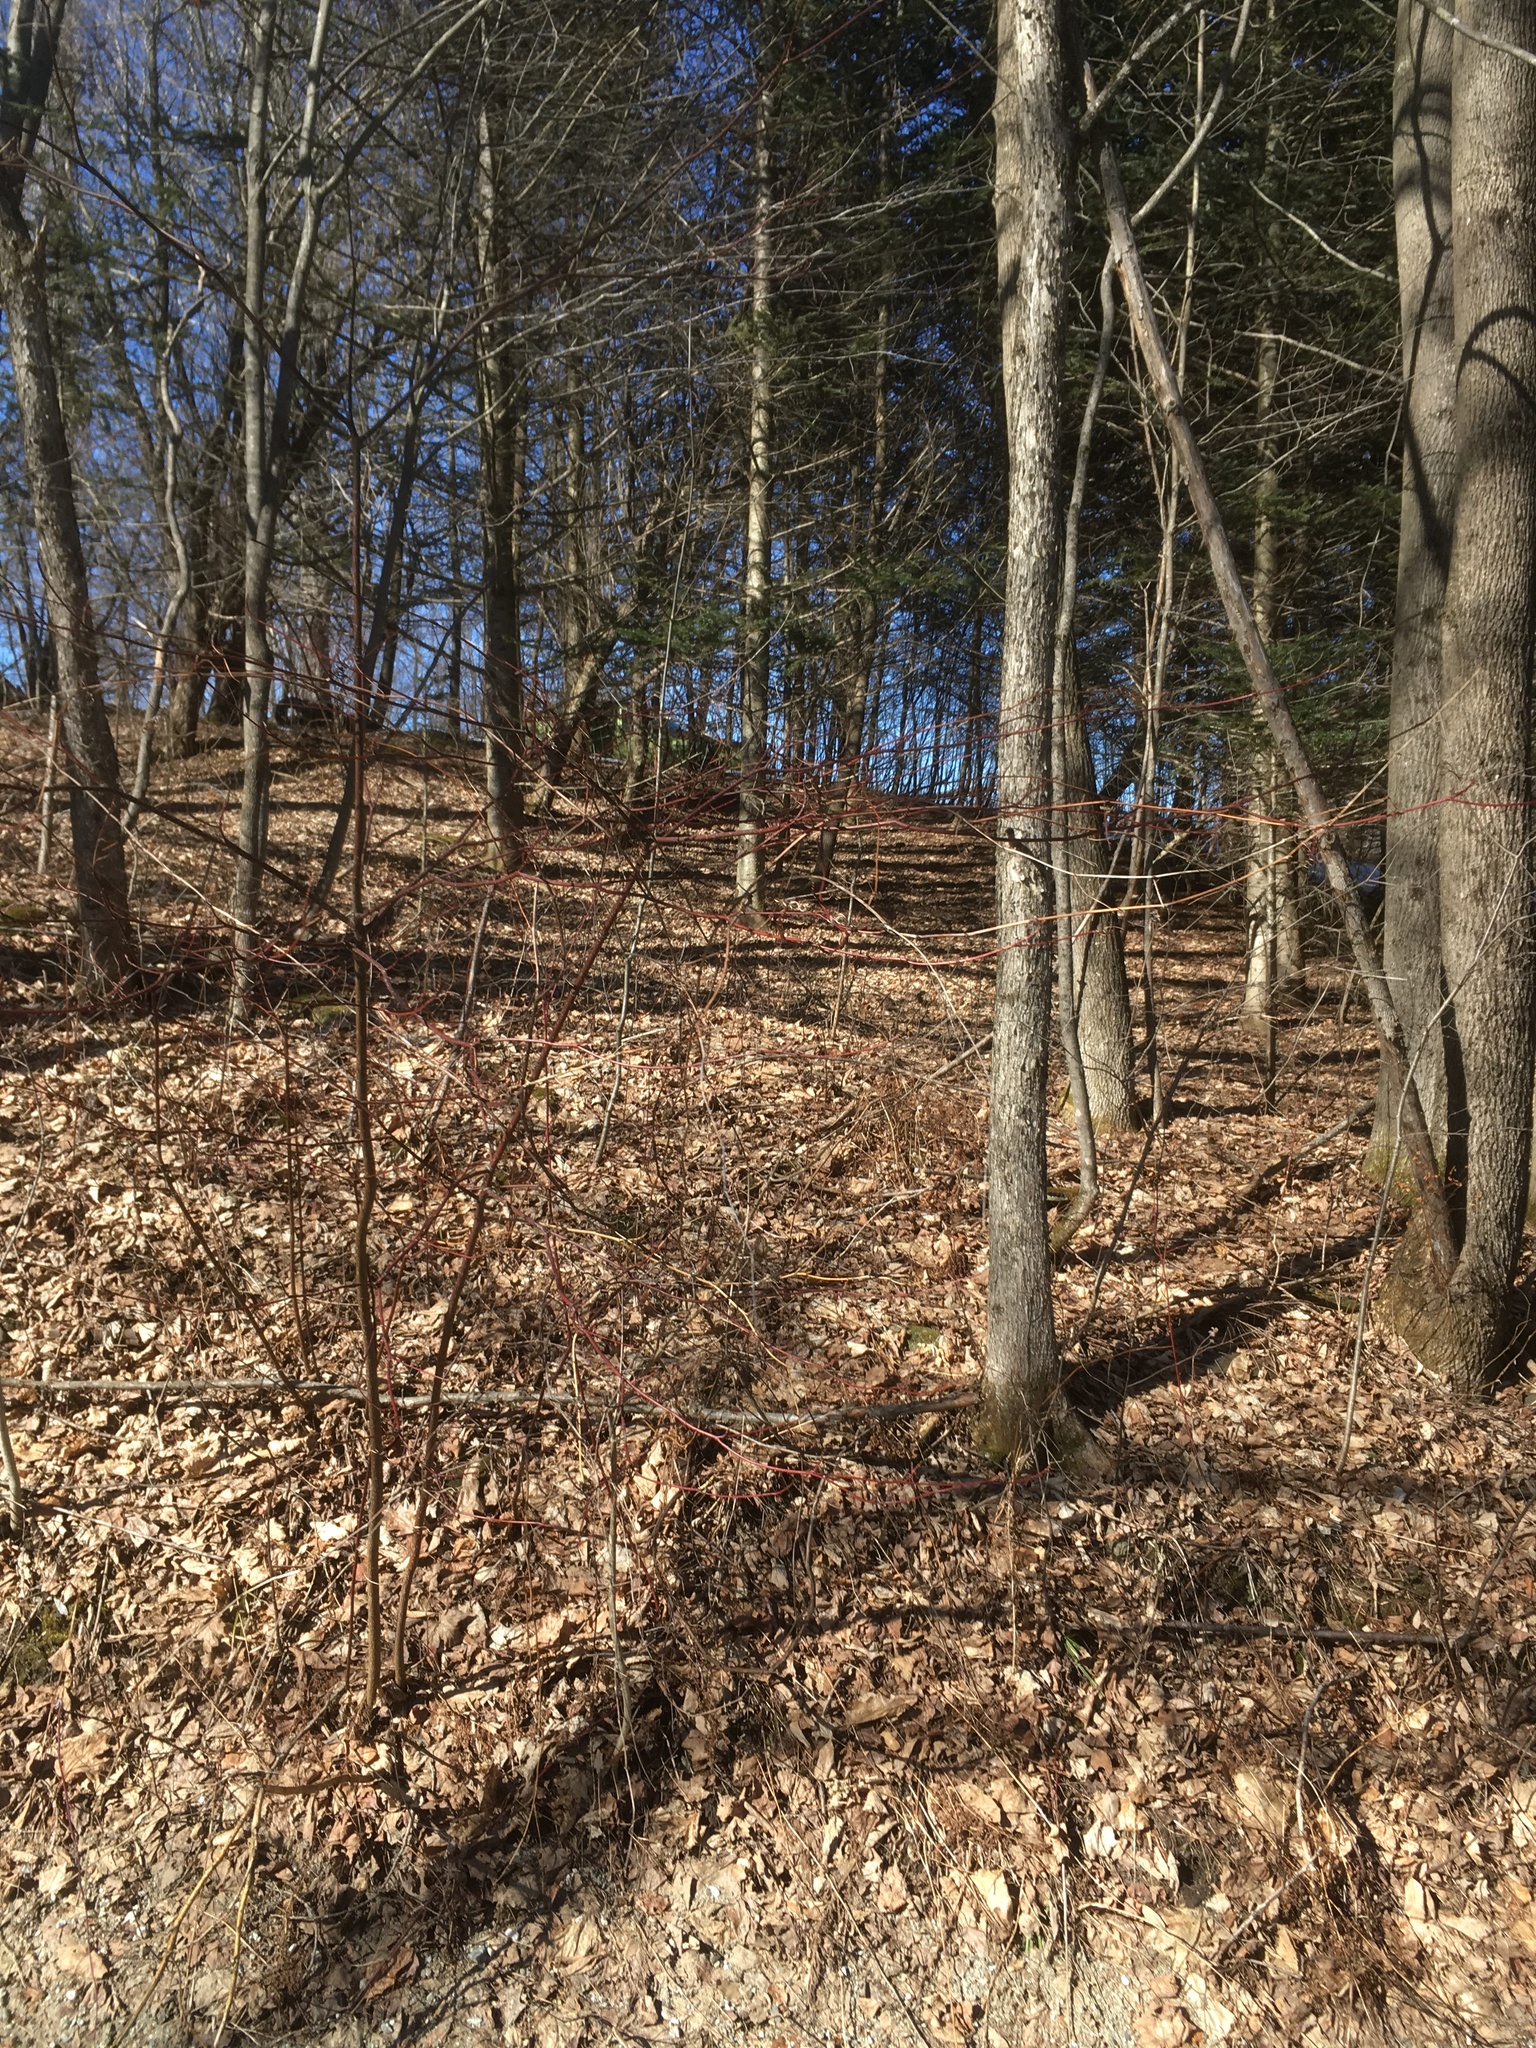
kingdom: Plantae
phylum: Tracheophyta
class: Magnoliopsida
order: Cornales
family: Cornaceae
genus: Cornus
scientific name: Cornus alternifolia
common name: Pagoda dogwood
